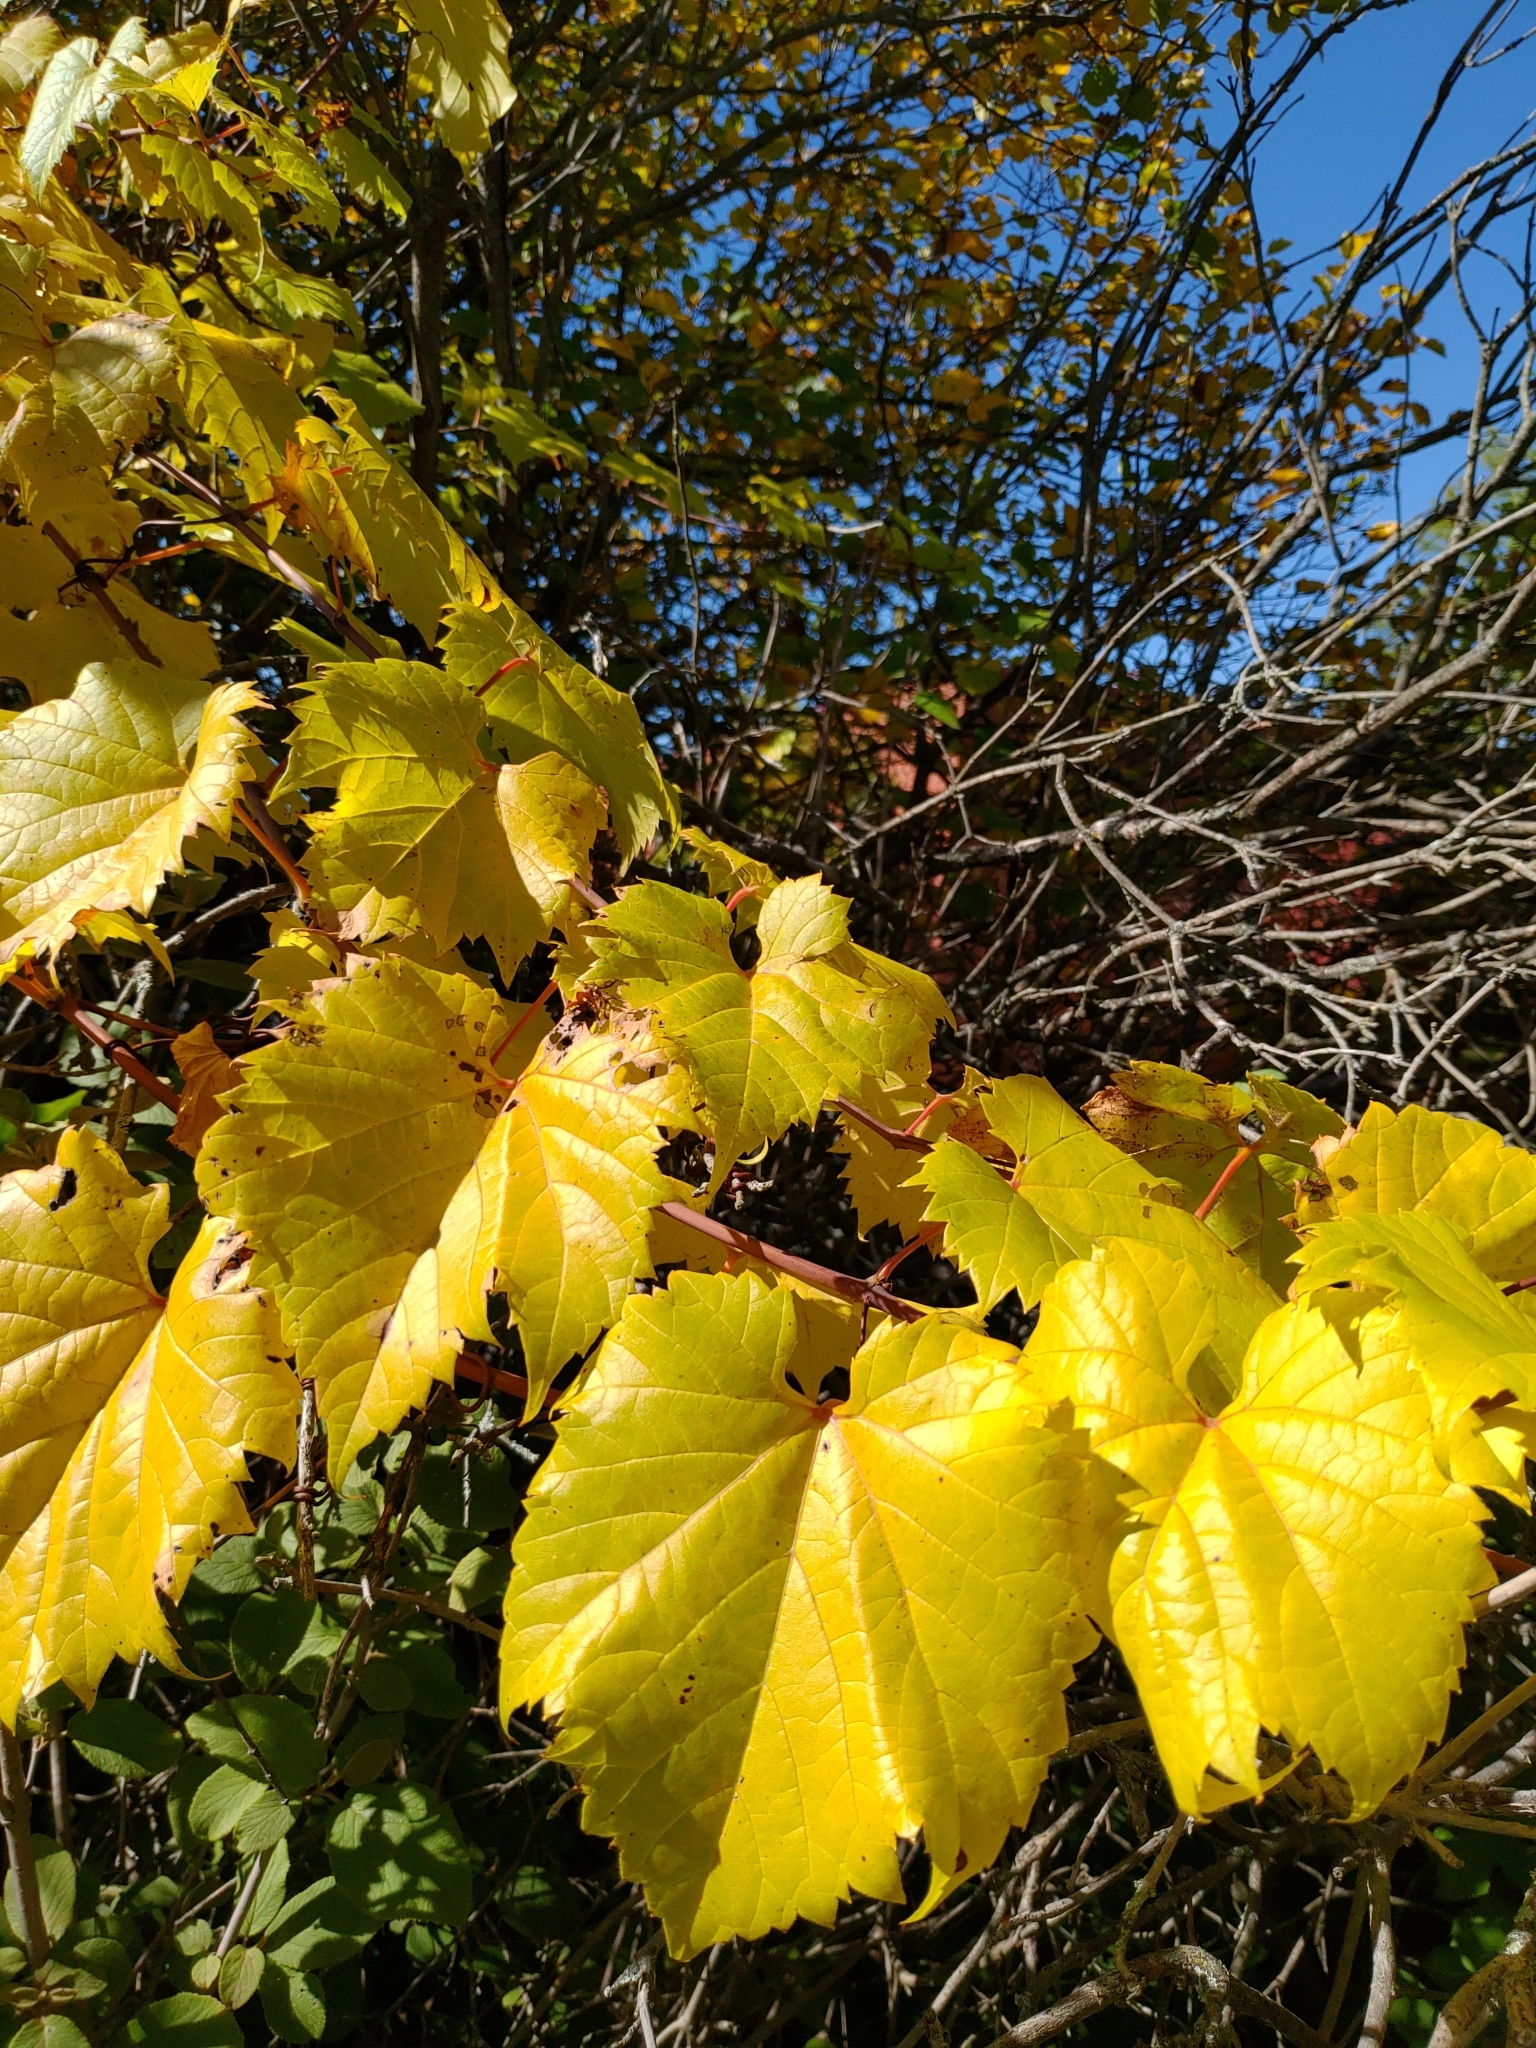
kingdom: Plantae
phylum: Tracheophyta
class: Magnoliopsida
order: Vitales
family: Vitaceae
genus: Vitis
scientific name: Vitis riparia
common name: Frost grape
